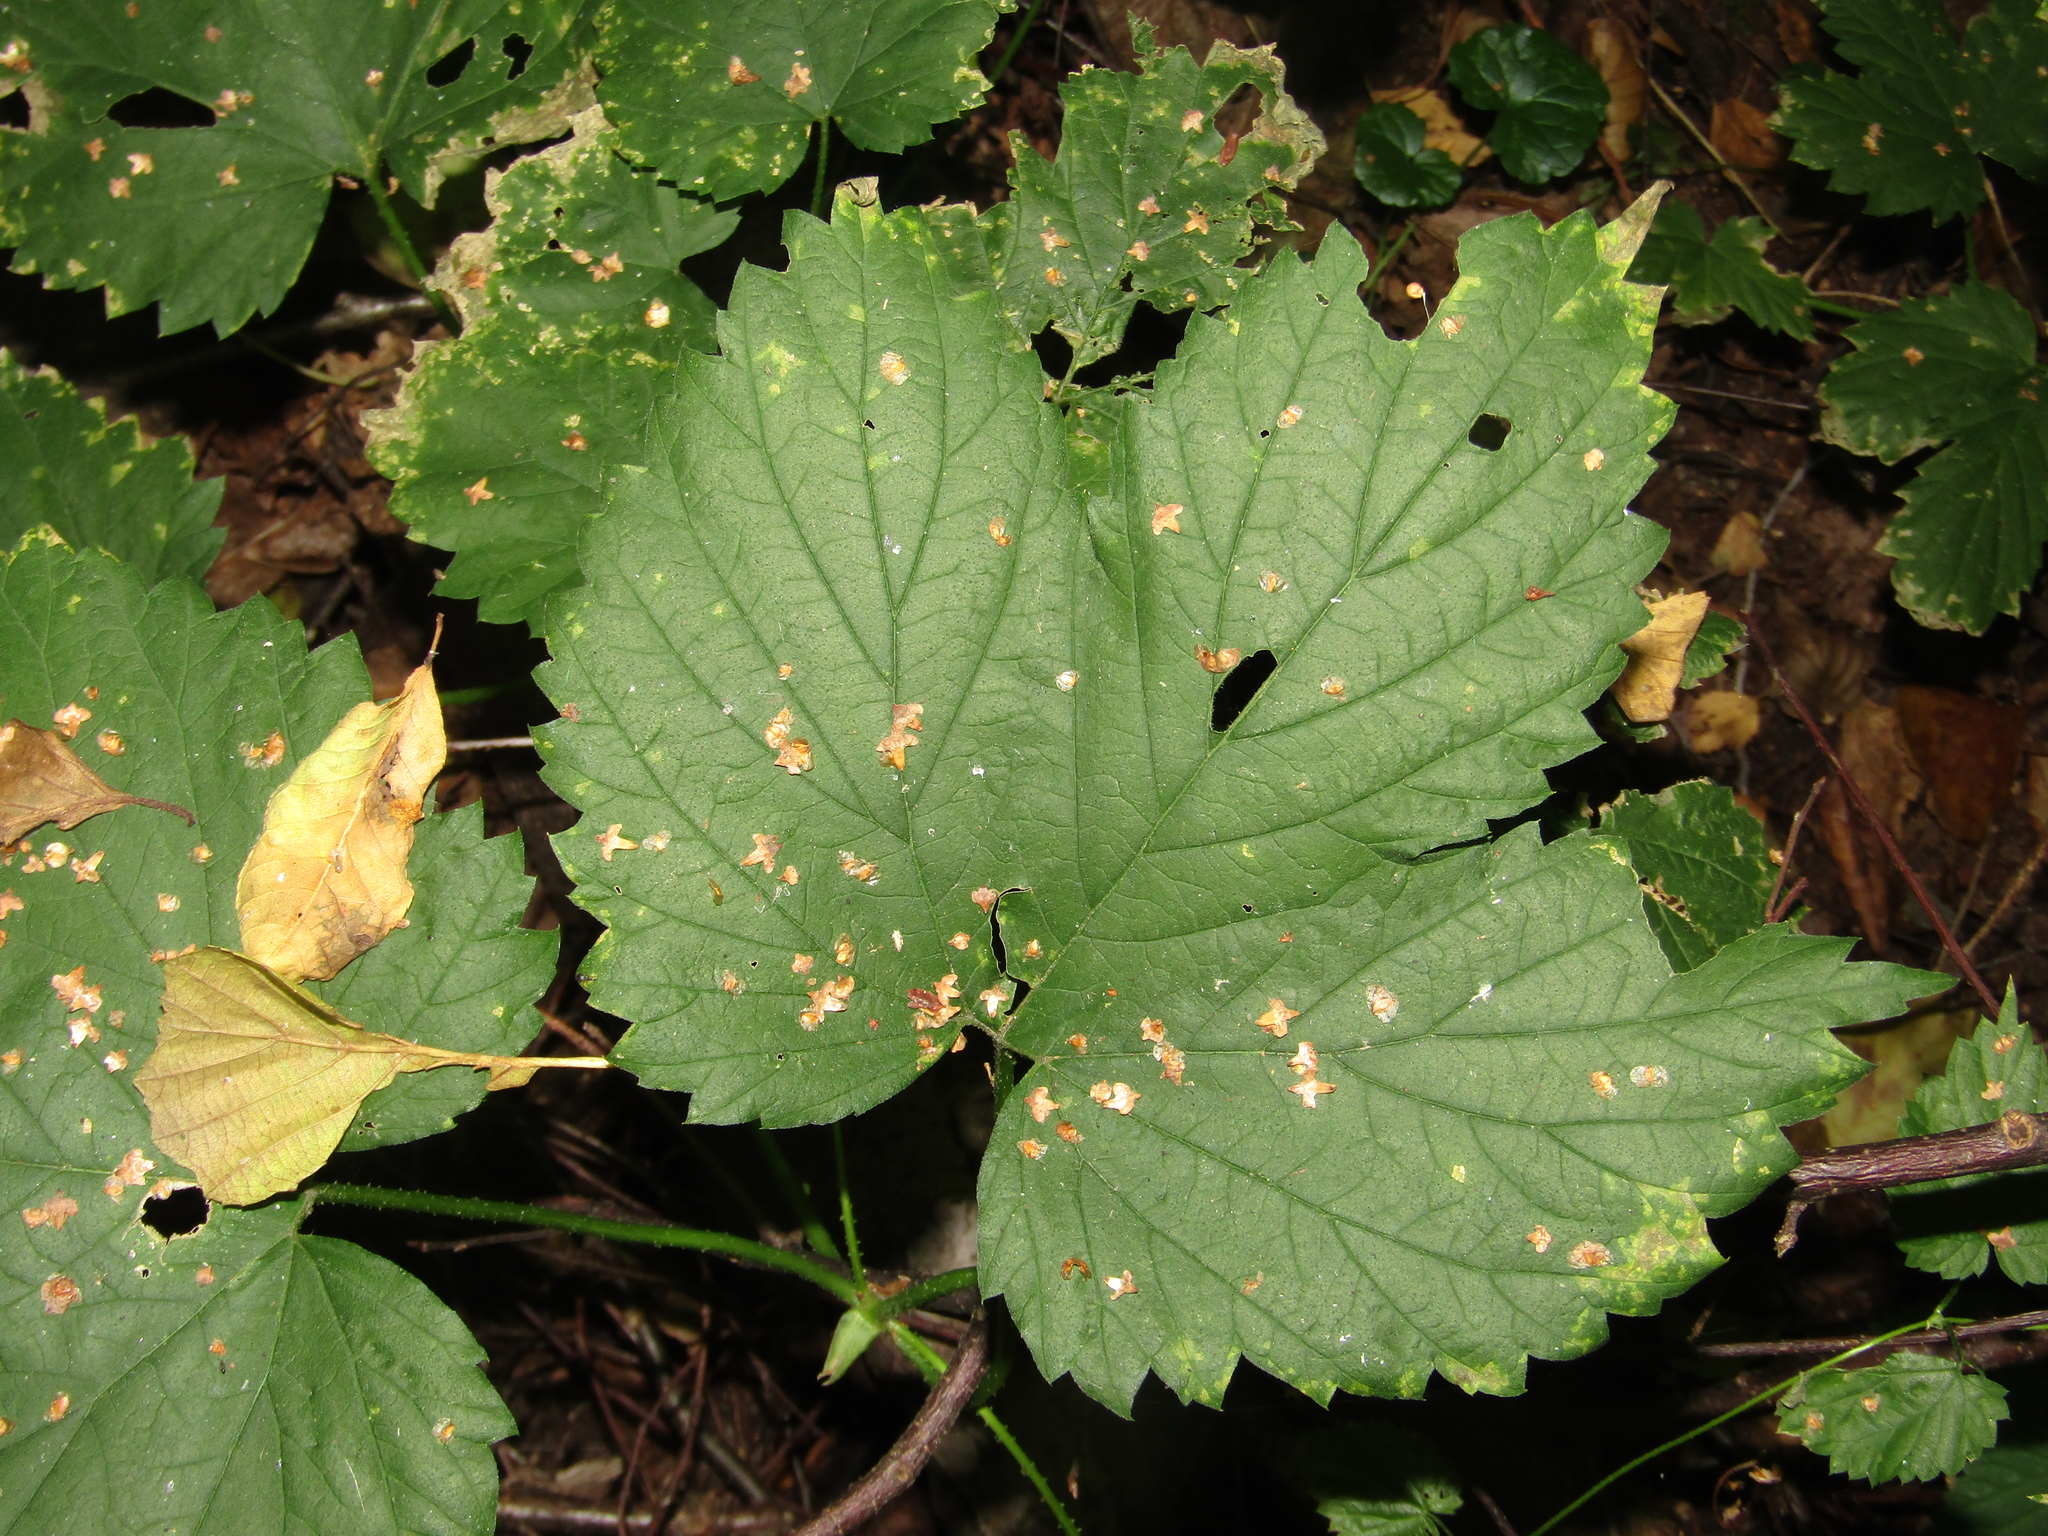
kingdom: Plantae
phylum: Tracheophyta
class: Magnoliopsida
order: Rosales
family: Cannabaceae
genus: Humulus
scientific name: Humulus lupulus
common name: Hop
